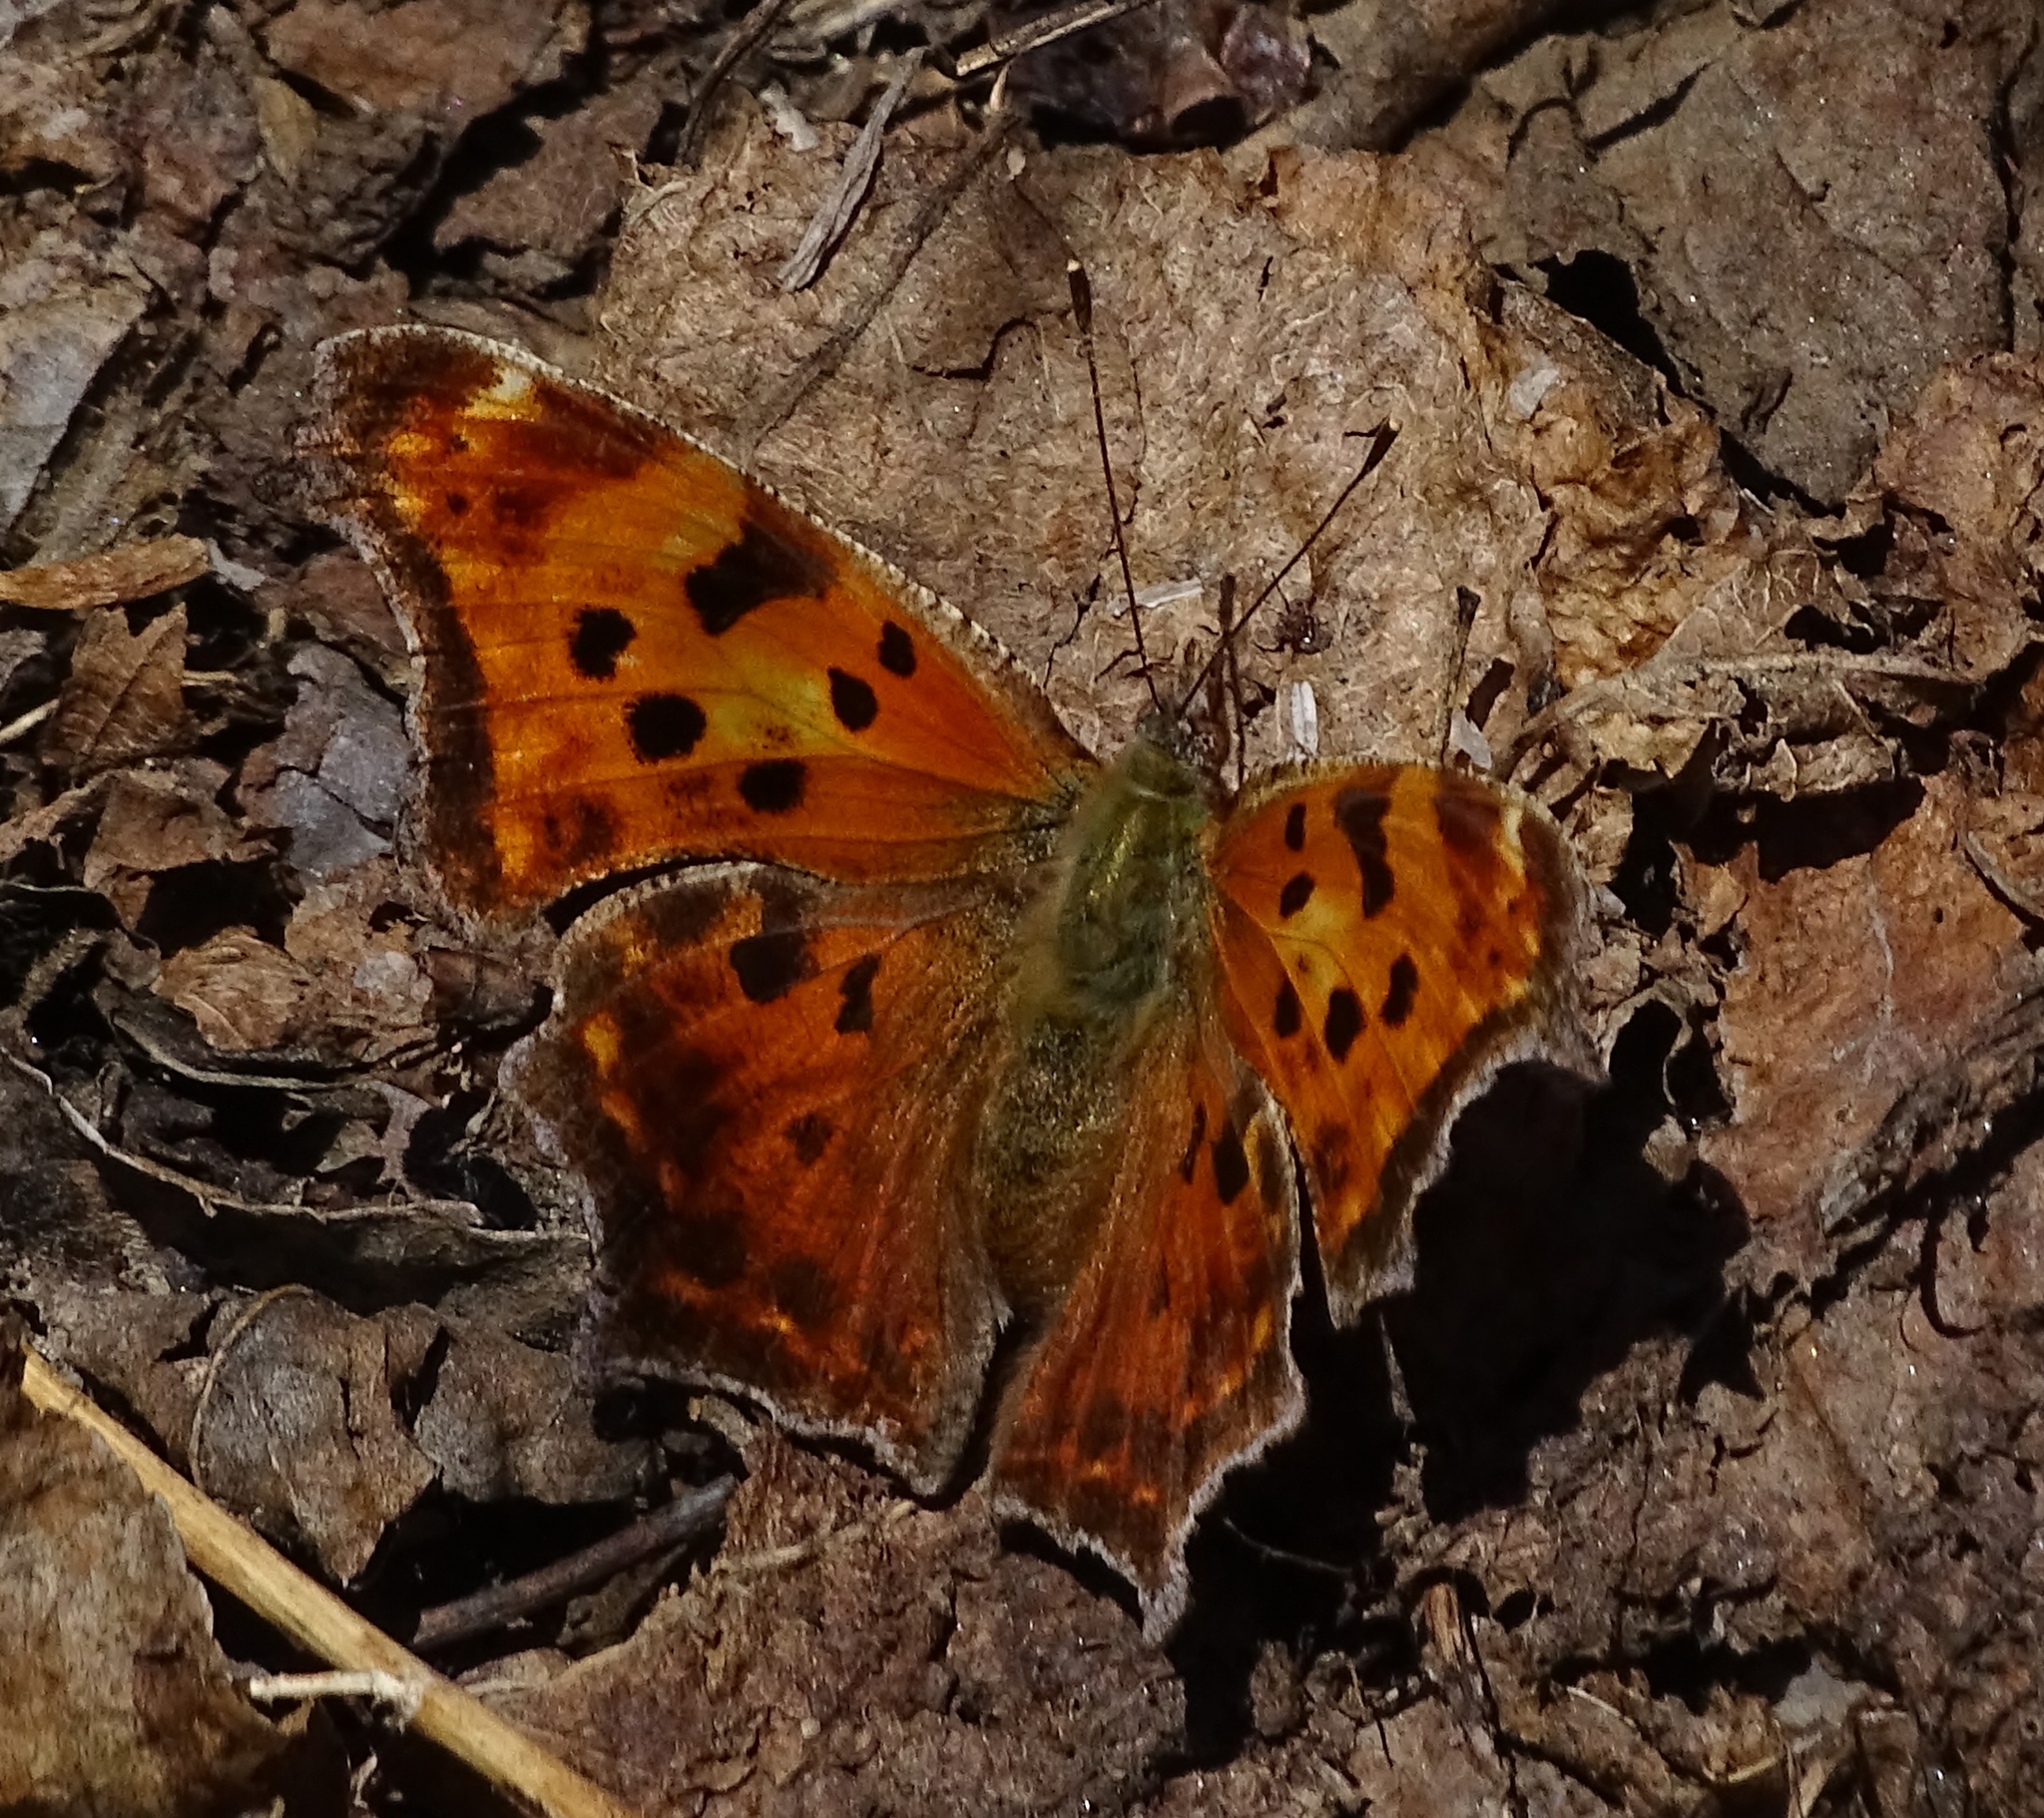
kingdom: Animalia
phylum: Arthropoda
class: Insecta
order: Lepidoptera
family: Nymphalidae
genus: Polygonia
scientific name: Polygonia comma
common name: Eastern comma
